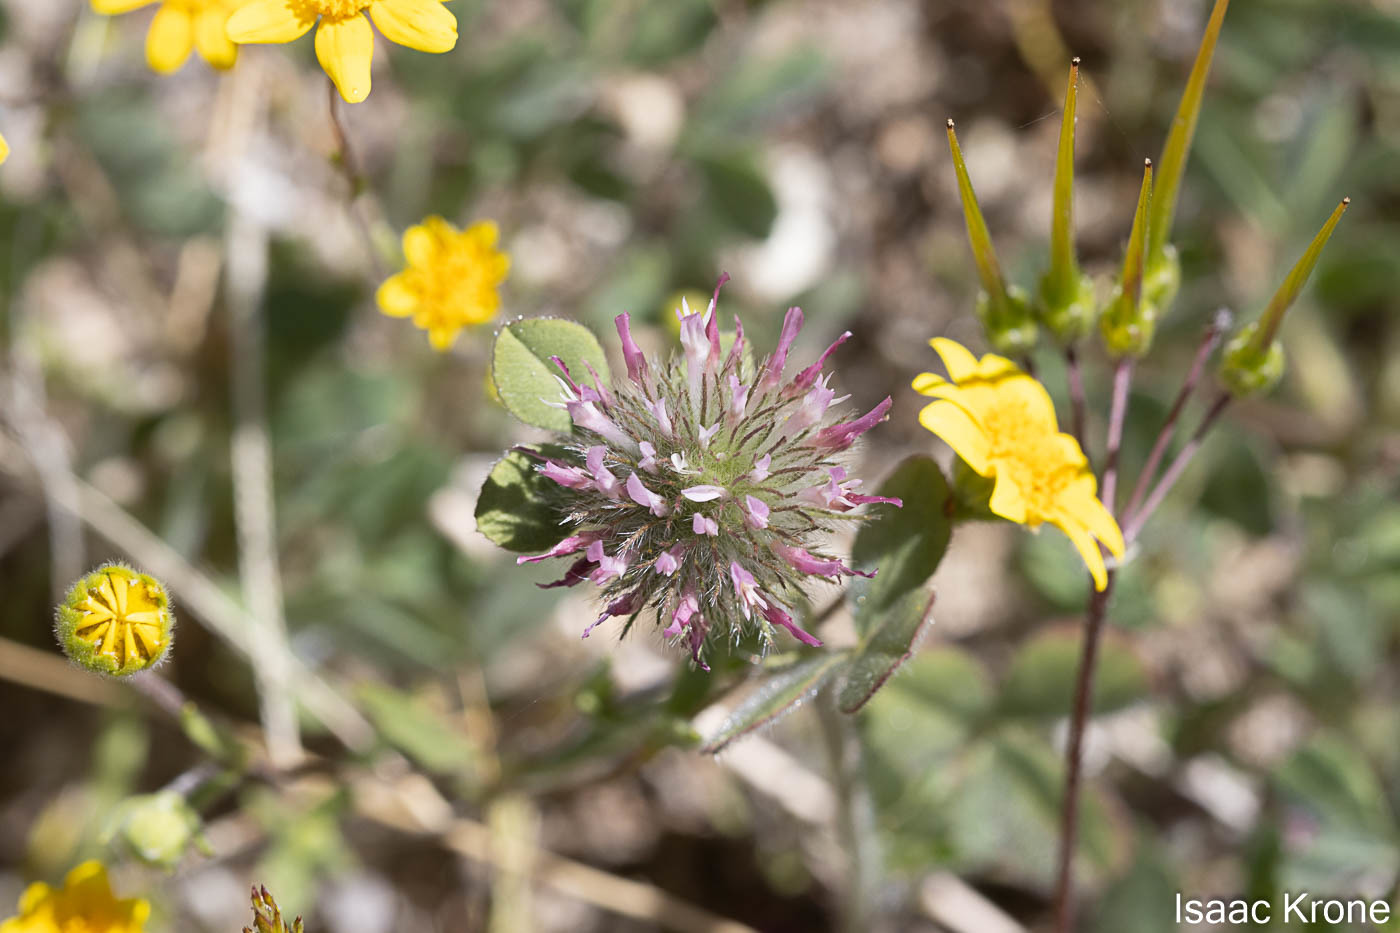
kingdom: Plantae
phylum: Tracheophyta
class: Magnoliopsida
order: Fabales
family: Fabaceae
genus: Trifolium
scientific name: Trifolium hirtum
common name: Rose clover
